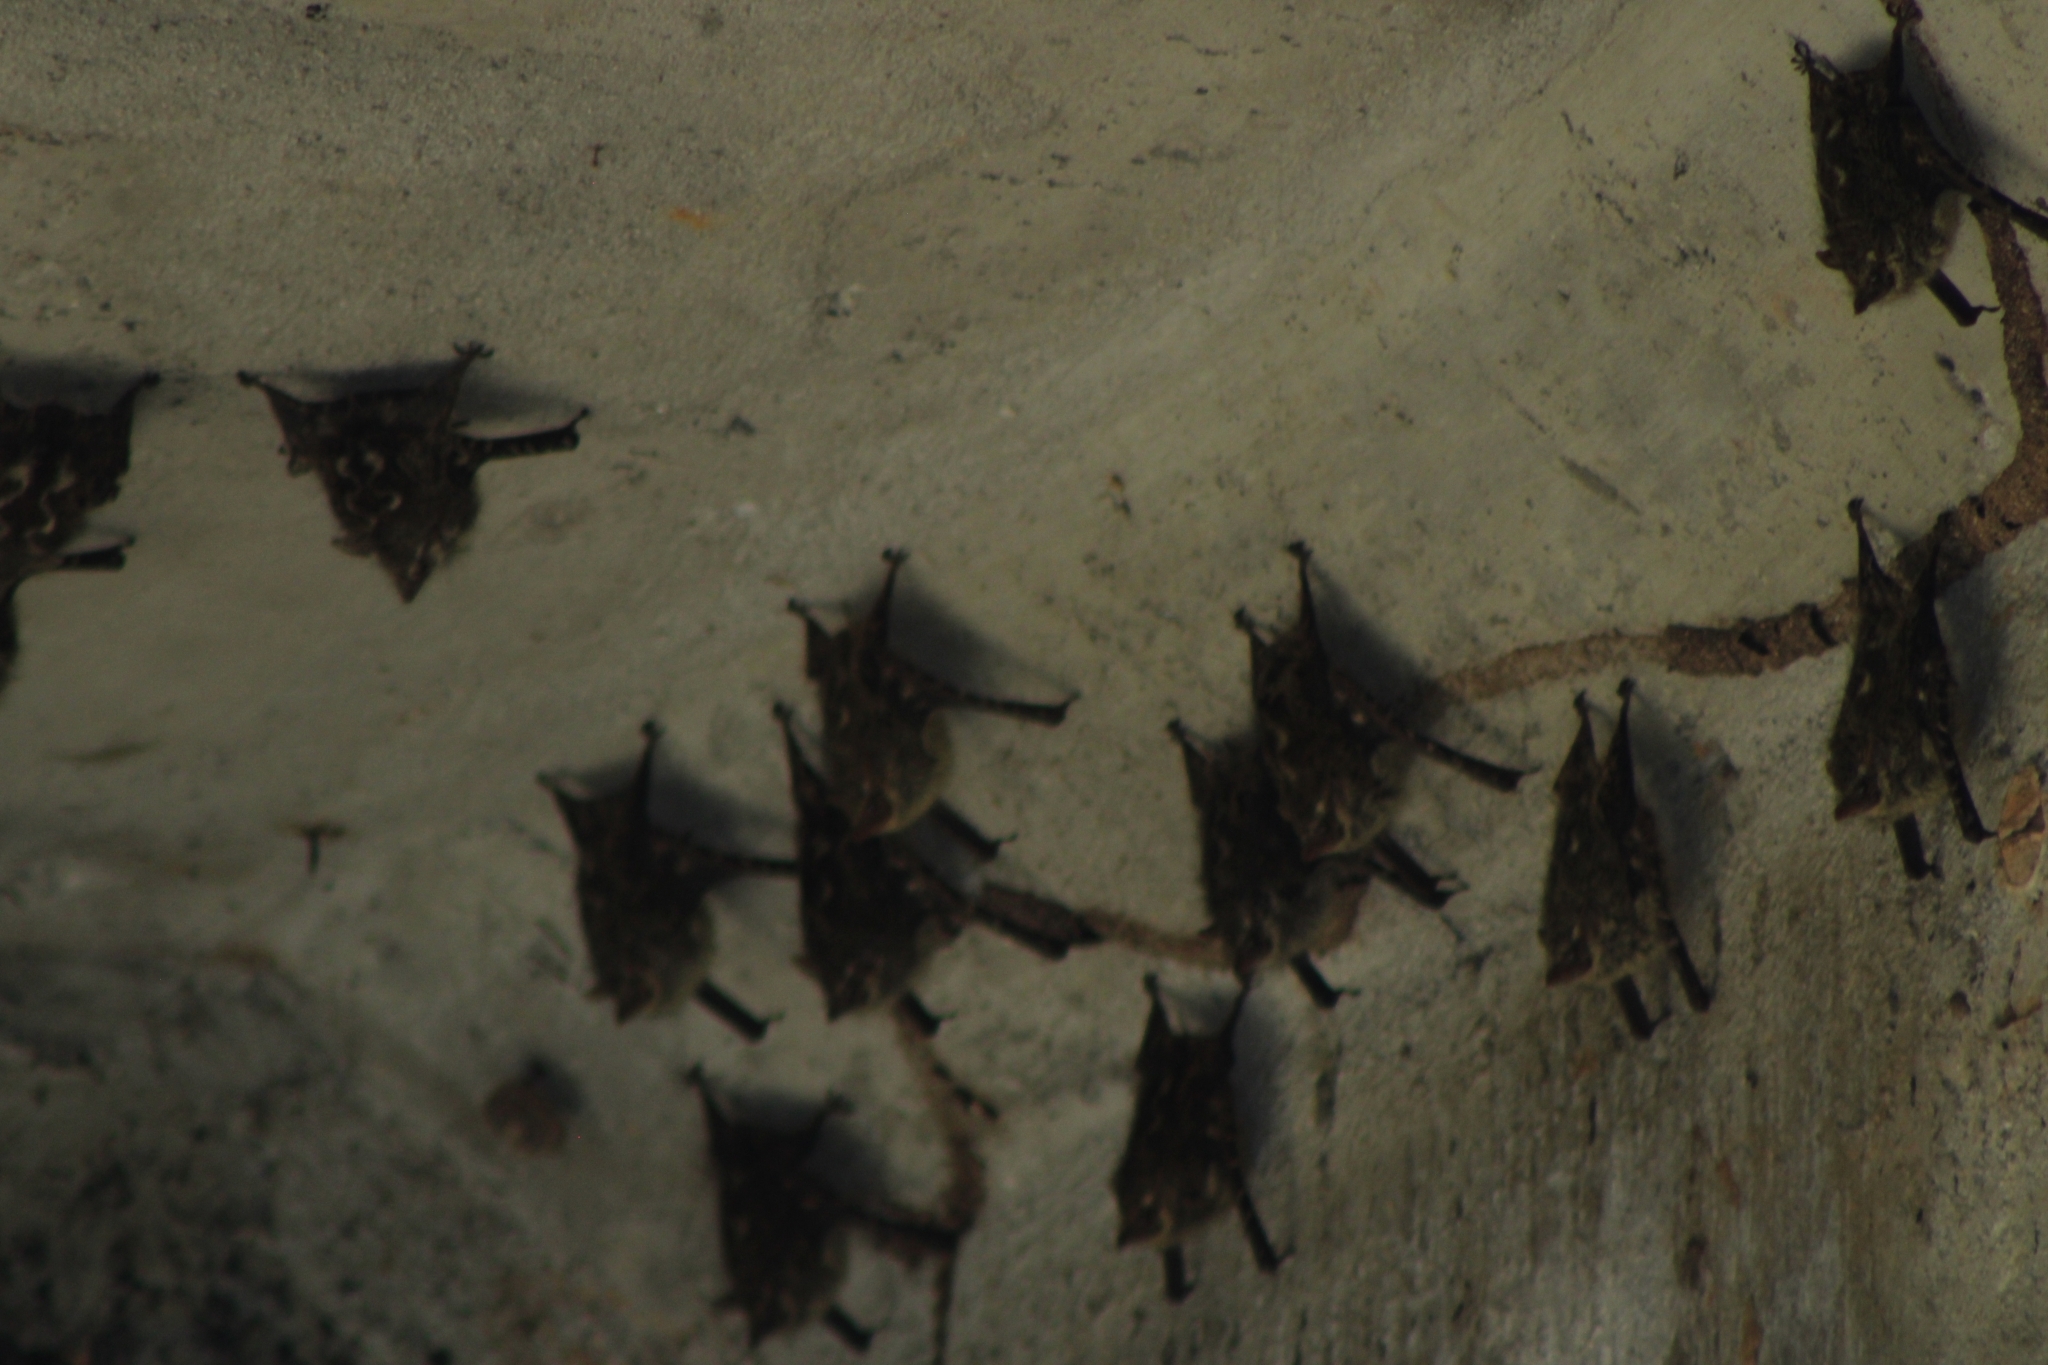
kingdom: Animalia
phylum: Chordata
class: Mammalia
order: Chiroptera
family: Emballonuridae
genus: Rhynchonycteris
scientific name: Rhynchonycteris naso
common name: Proboscis bat
